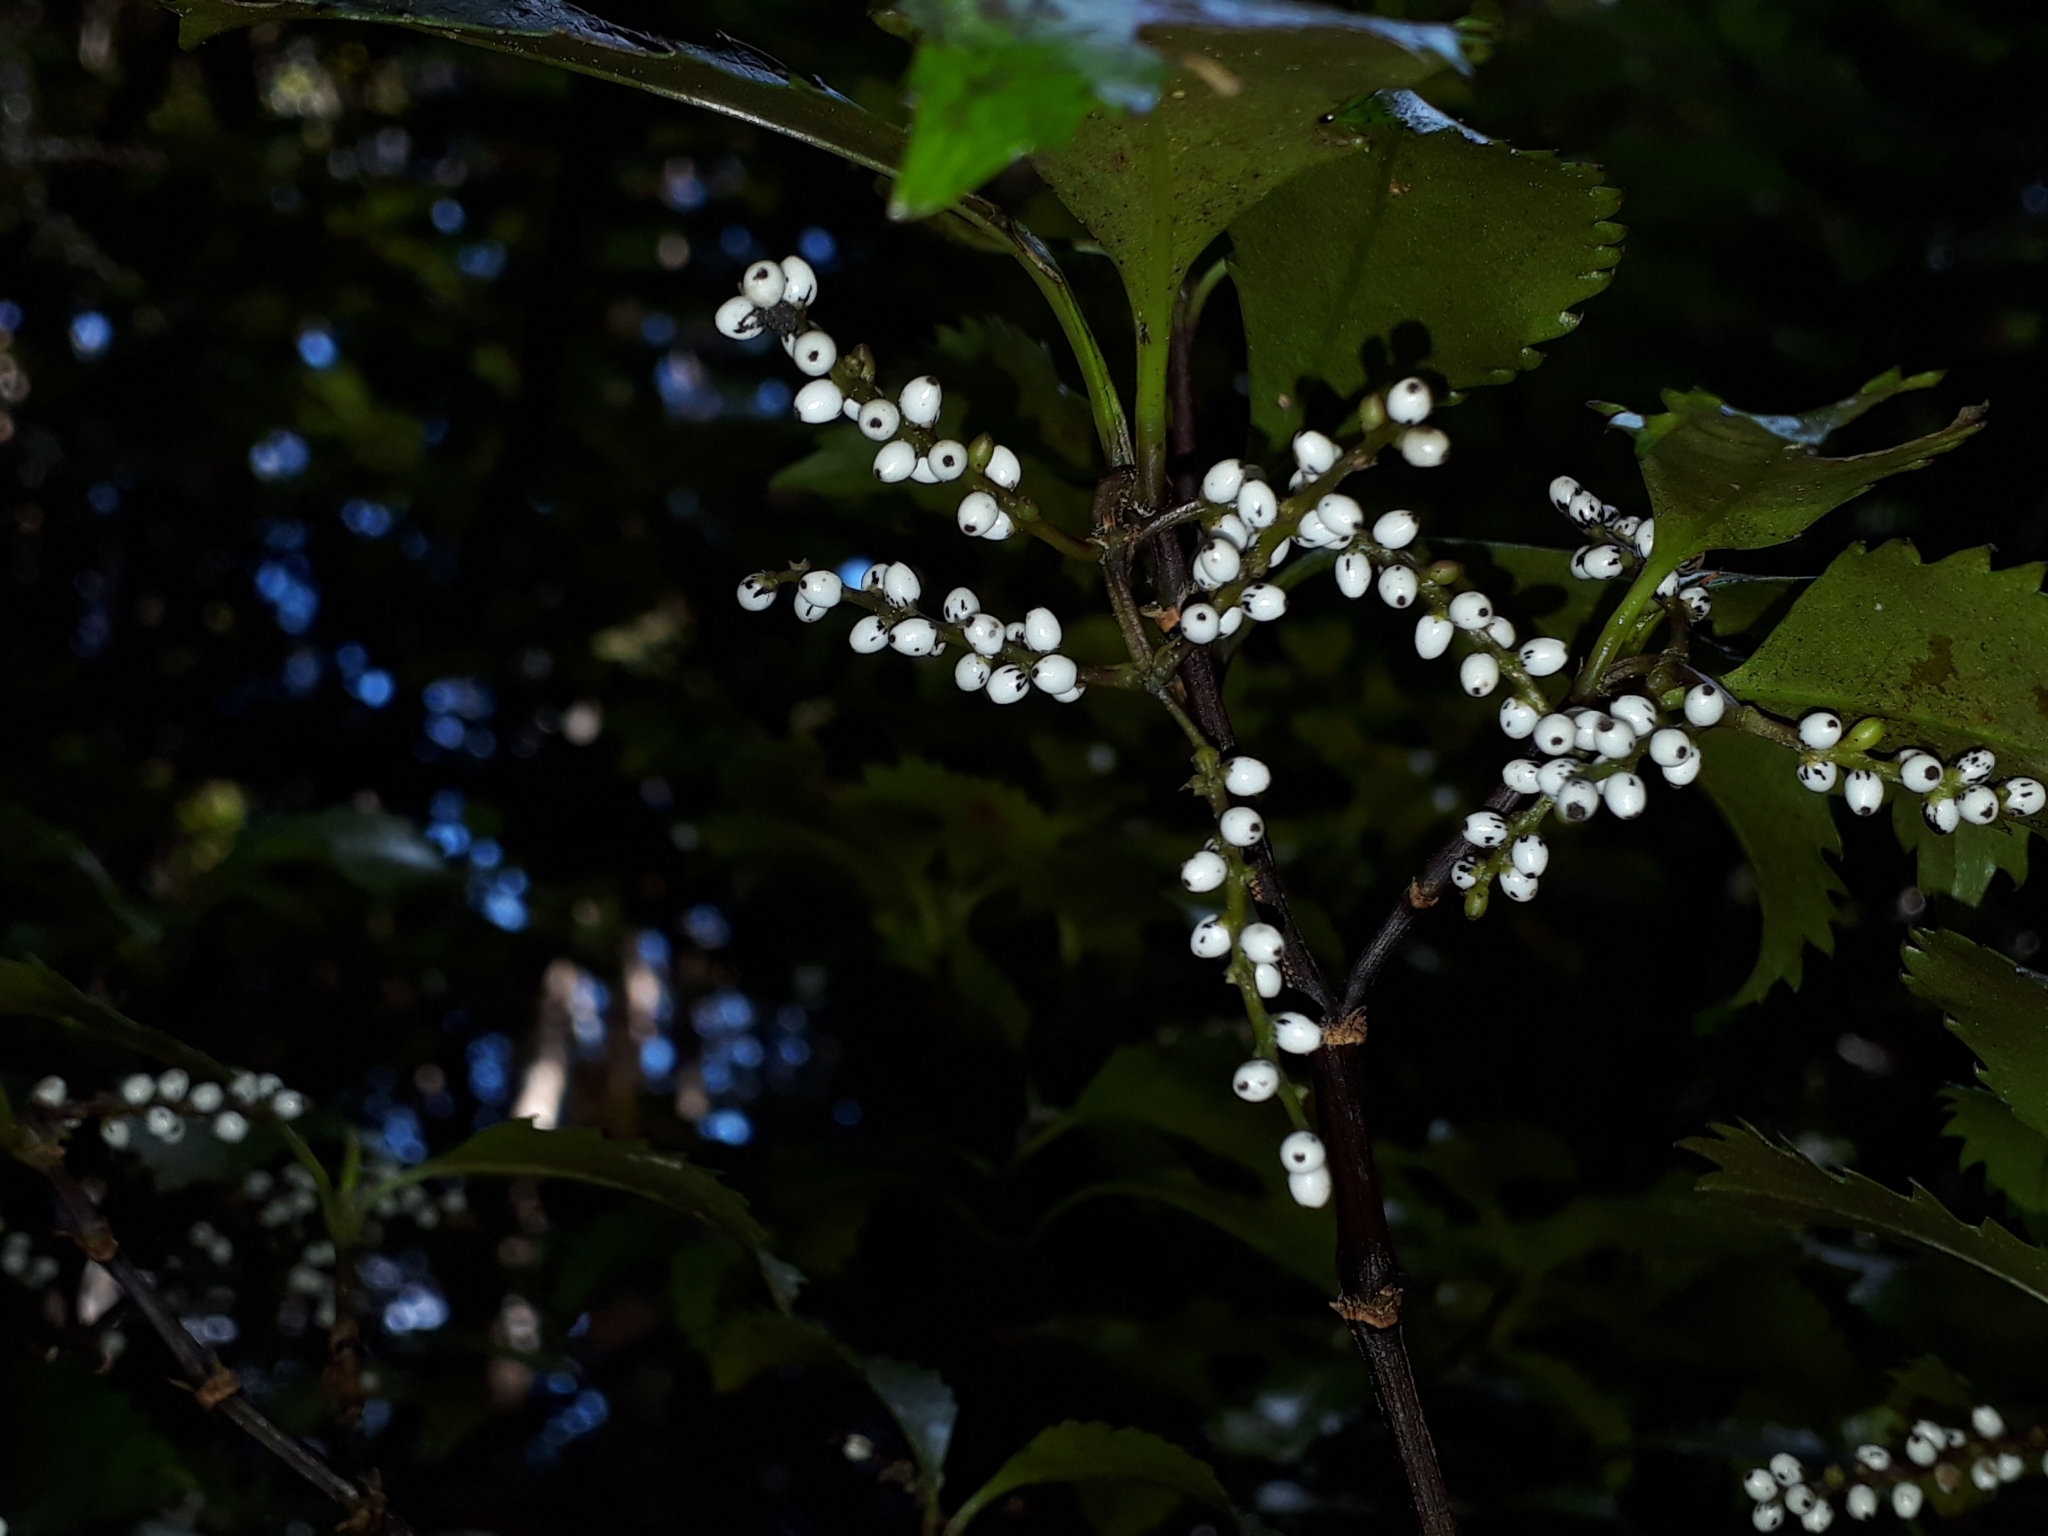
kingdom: Plantae
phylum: Tracheophyta
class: Magnoliopsida
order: Chloranthales
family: Chloranthaceae
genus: Ascarina
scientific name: Ascarina lucida
